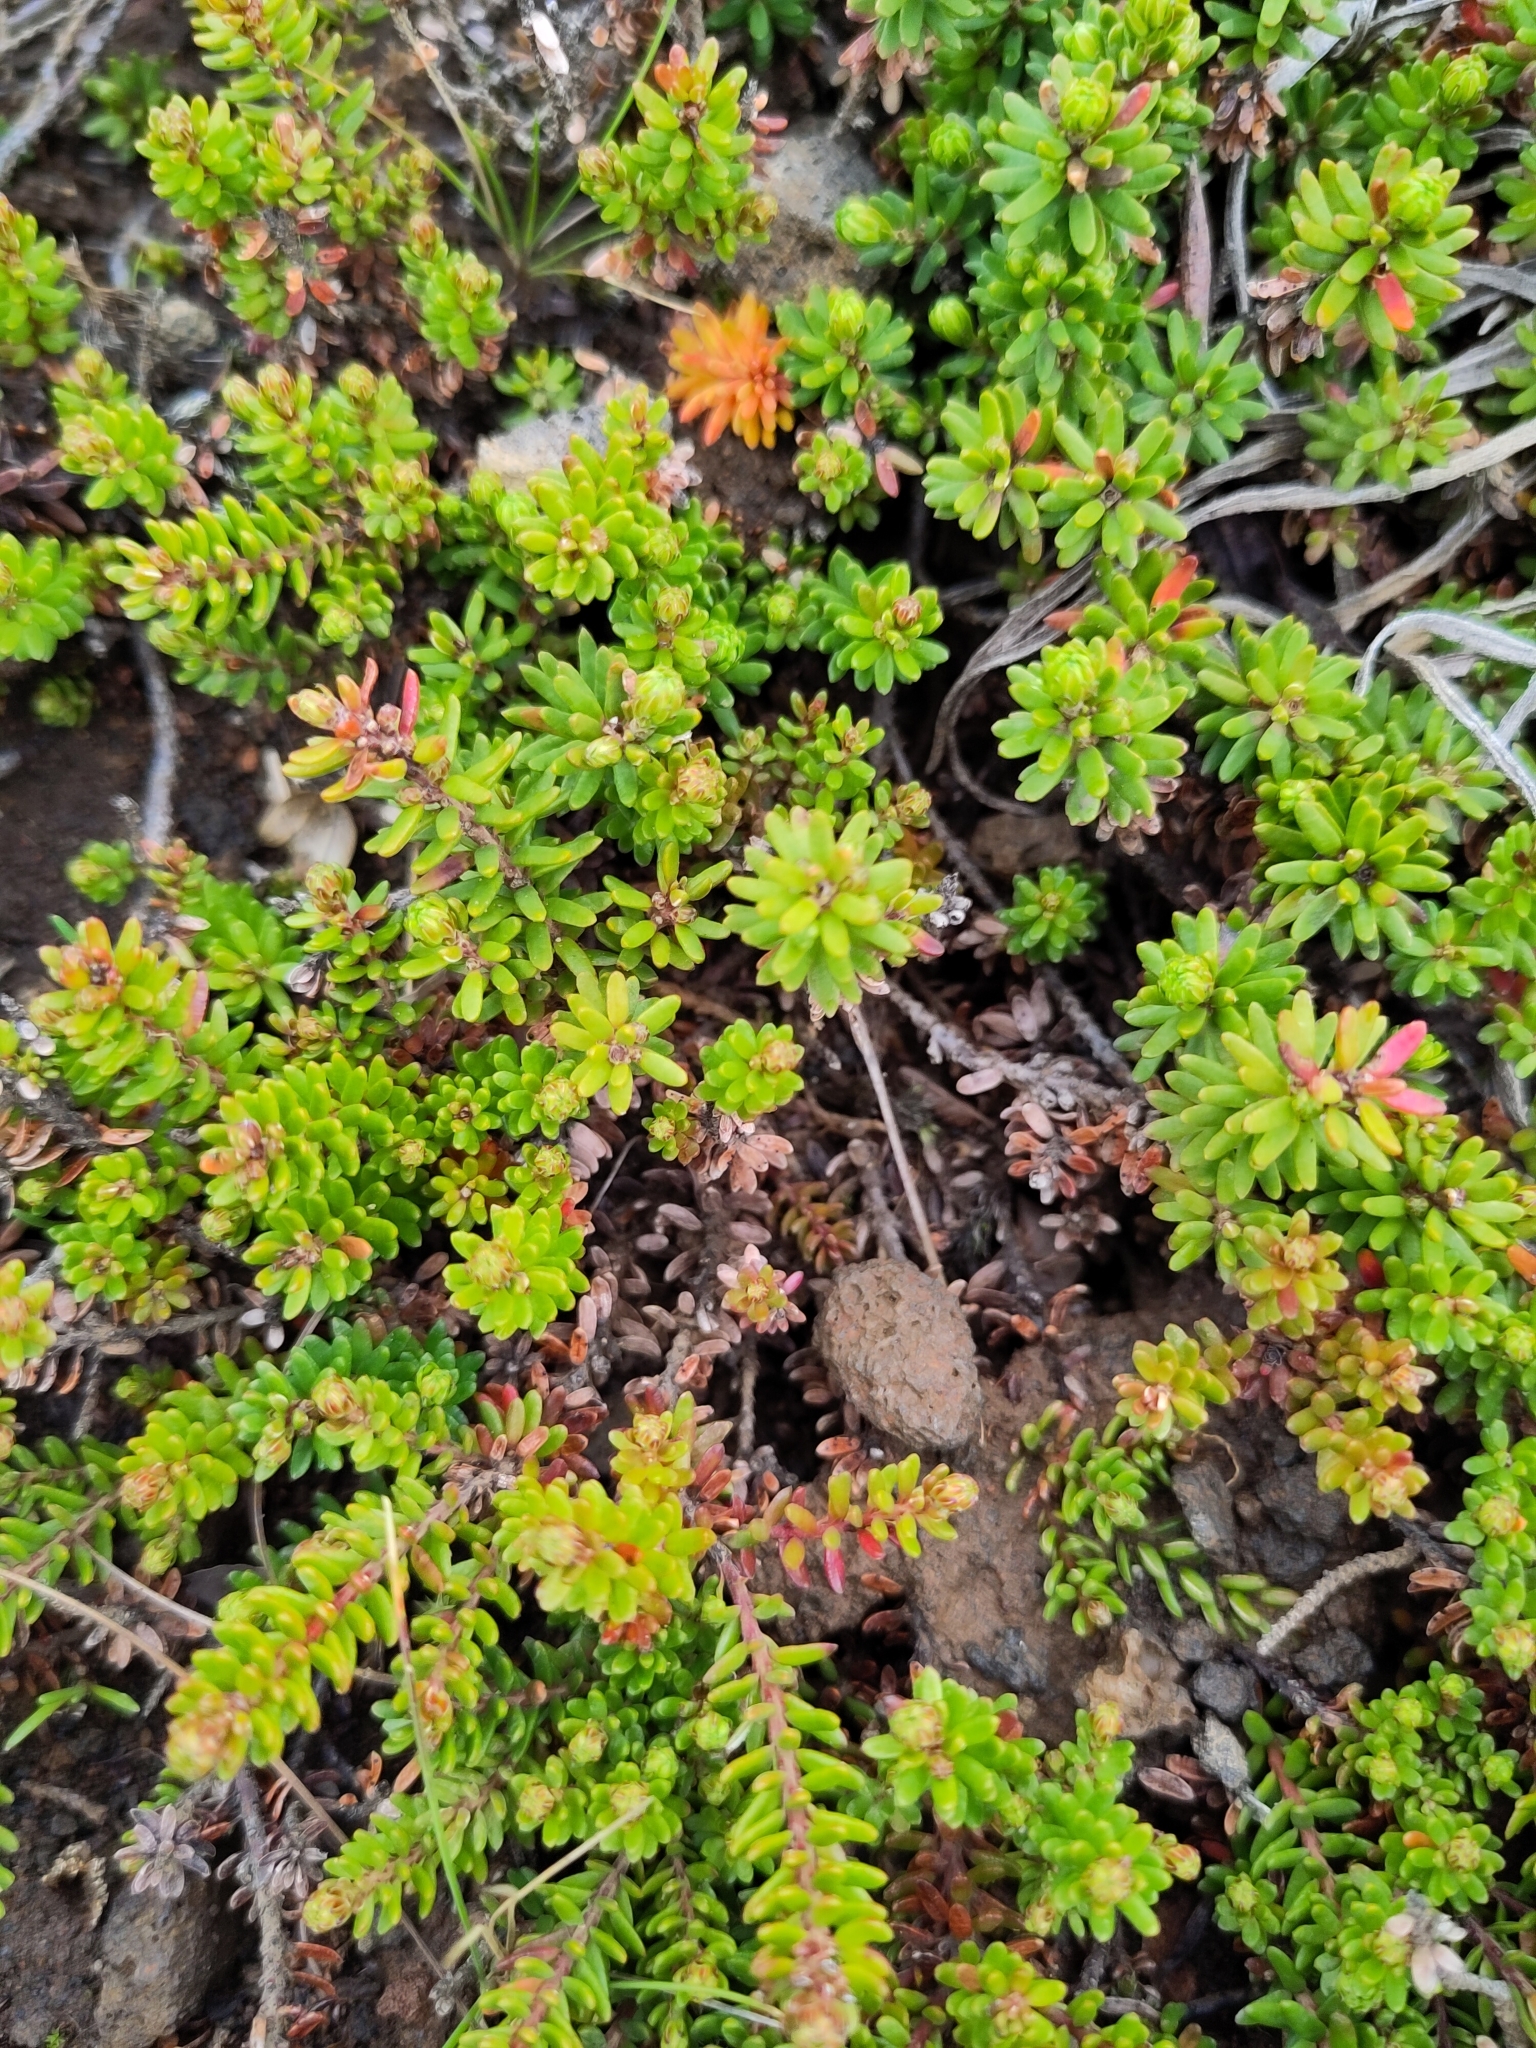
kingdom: Plantae
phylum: Tracheophyta
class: Magnoliopsida
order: Ericales
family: Ericaceae
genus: Empetrum
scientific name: Empetrum nigrum
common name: Black crowberry
